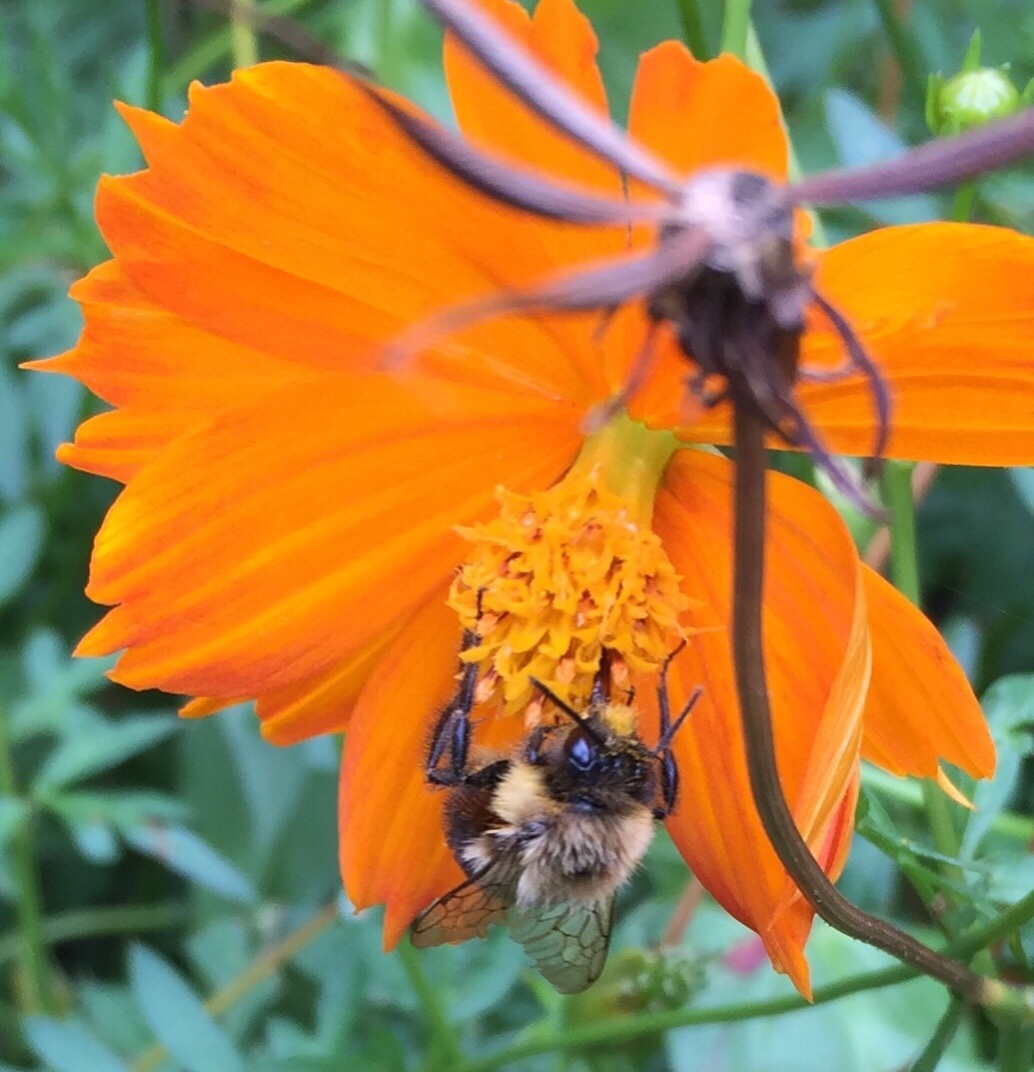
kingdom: Animalia
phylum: Arthropoda
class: Insecta
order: Hymenoptera
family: Apidae
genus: Bombus
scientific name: Bombus impatiens
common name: Common eastern bumble bee
